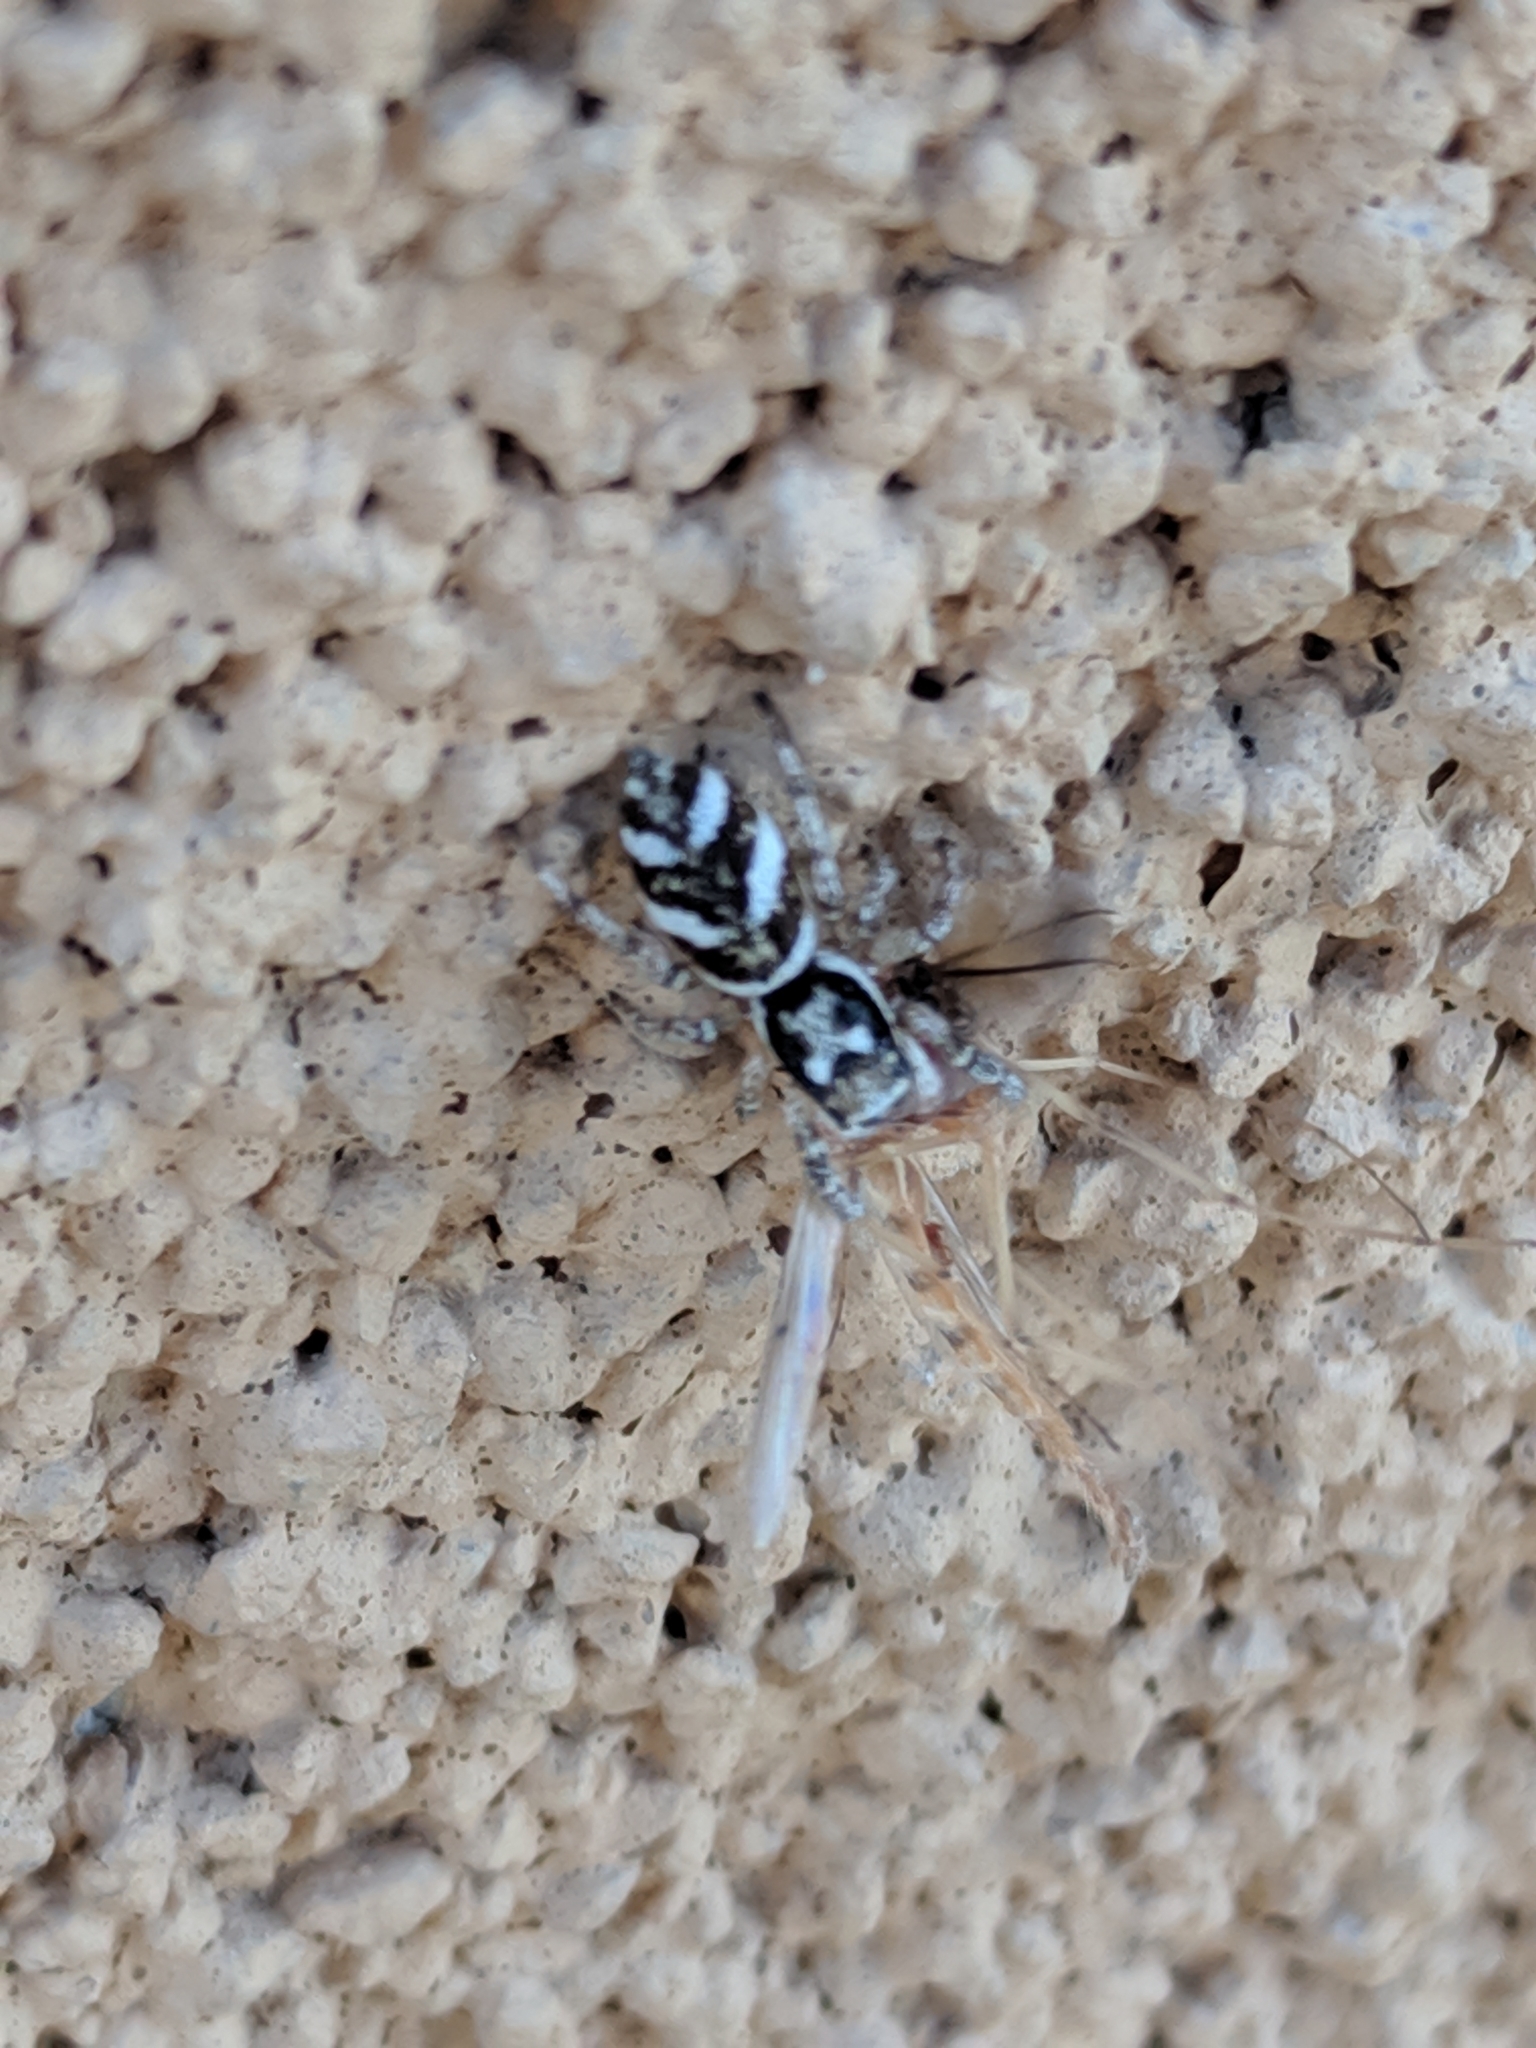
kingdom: Animalia
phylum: Arthropoda
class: Arachnida
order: Araneae
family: Salticidae
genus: Salticus
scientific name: Salticus scenicus
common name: Zebra jumper
